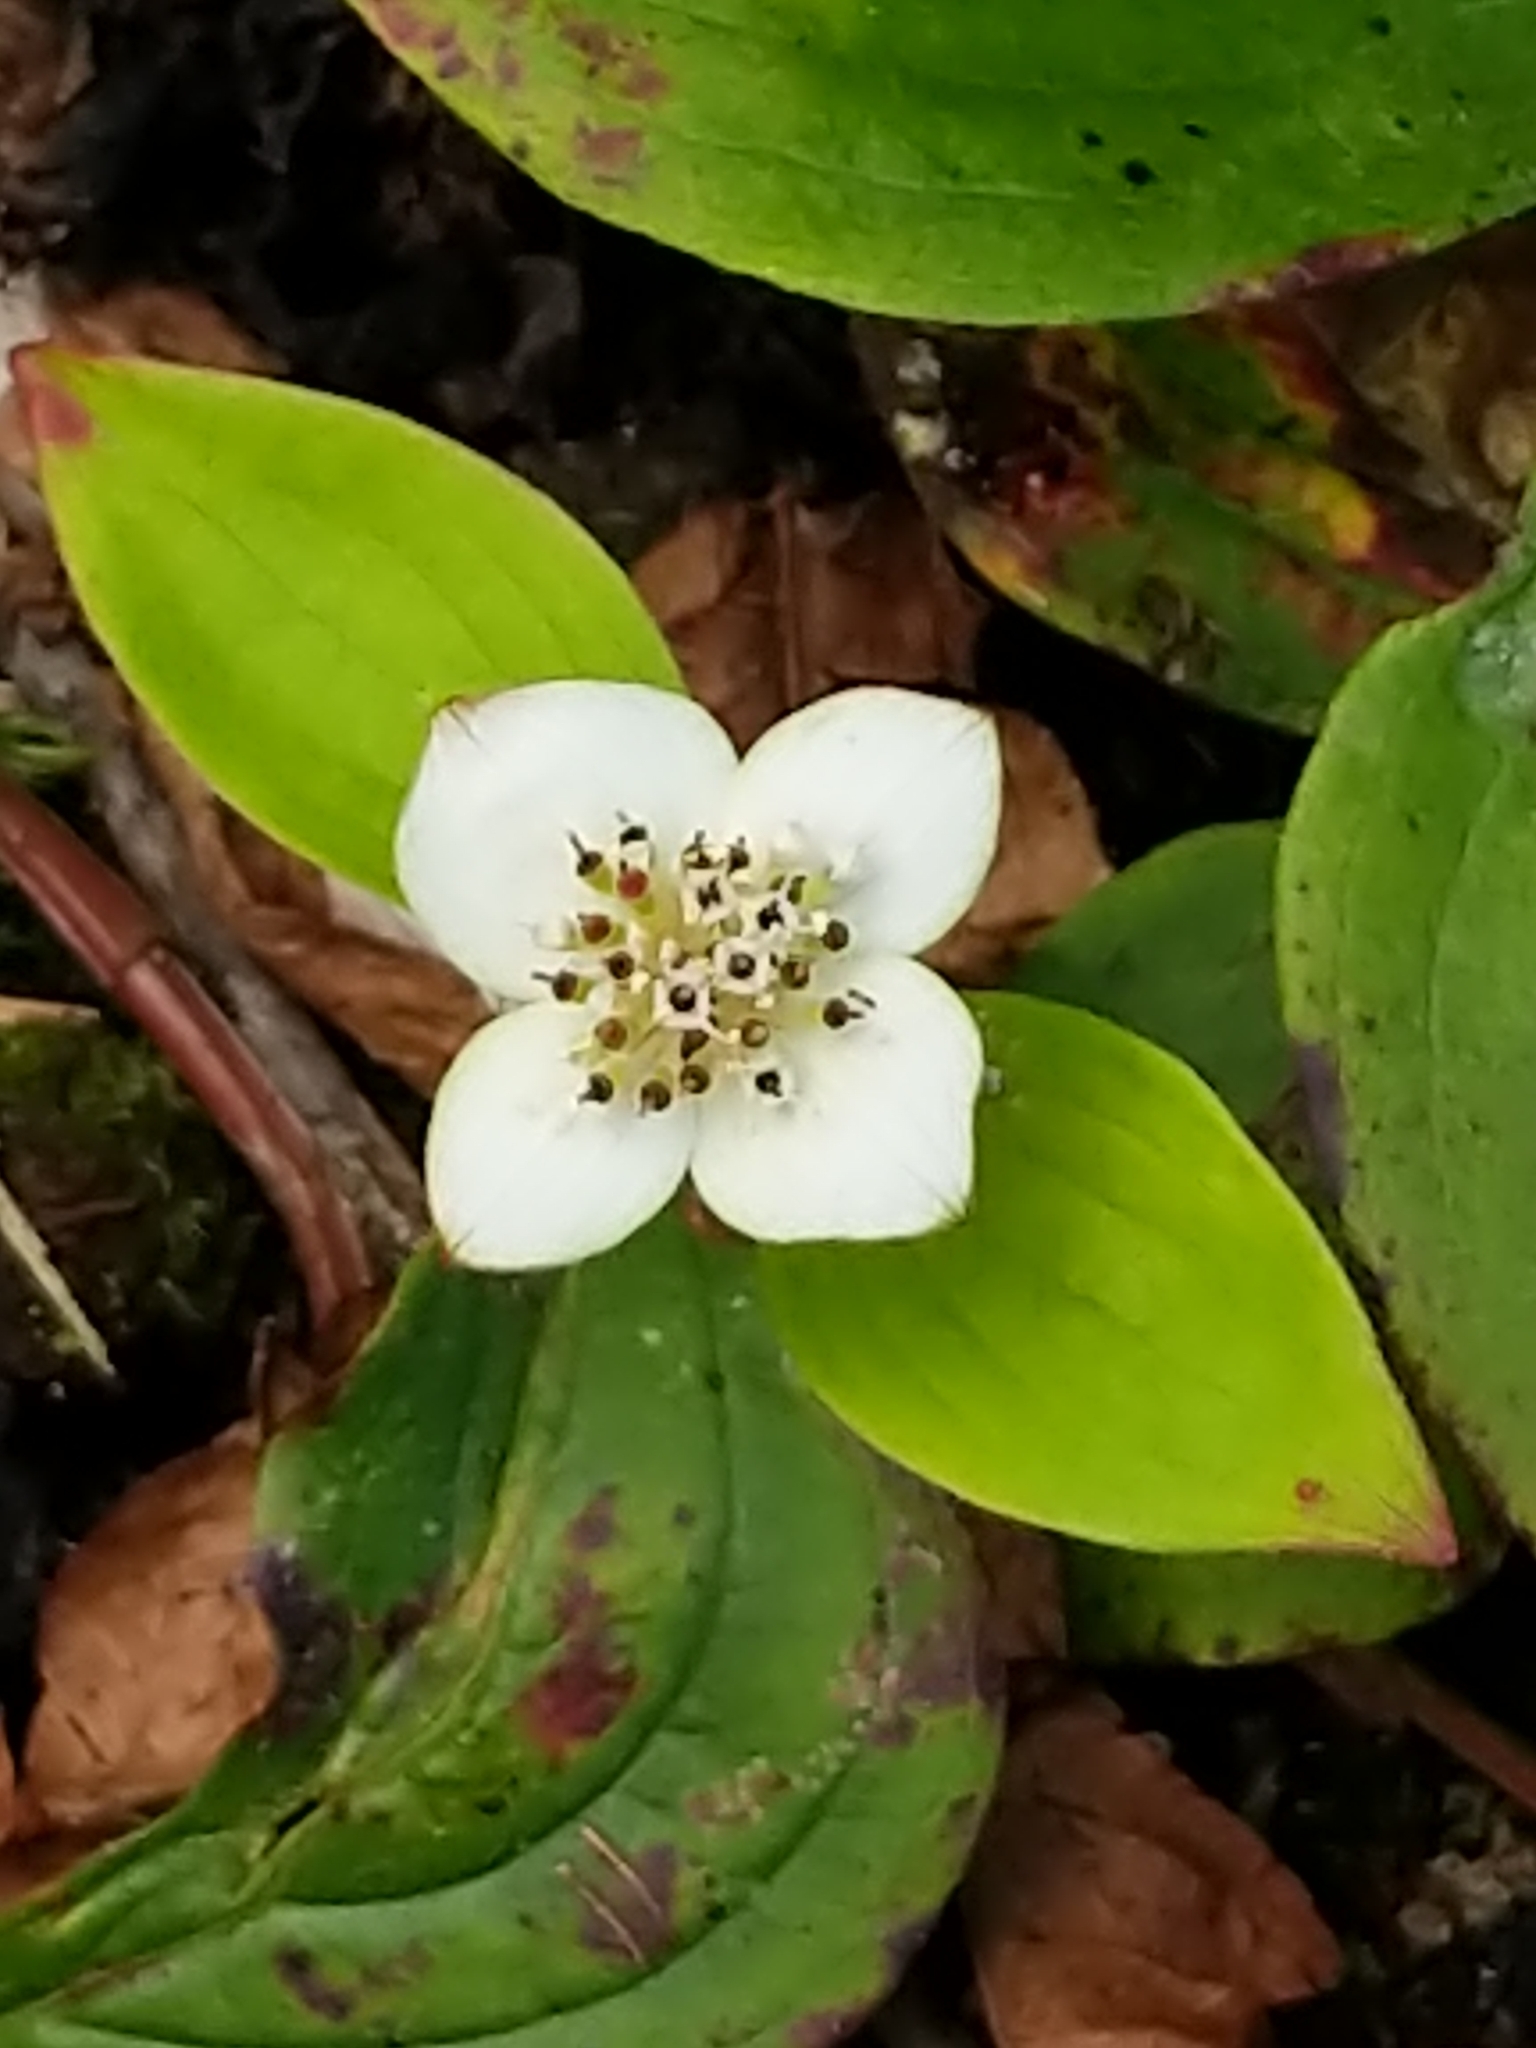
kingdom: Plantae
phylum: Tracheophyta
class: Magnoliopsida
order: Cornales
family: Cornaceae
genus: Cornus
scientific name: Cornus canadensis
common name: Creeping dogwood
